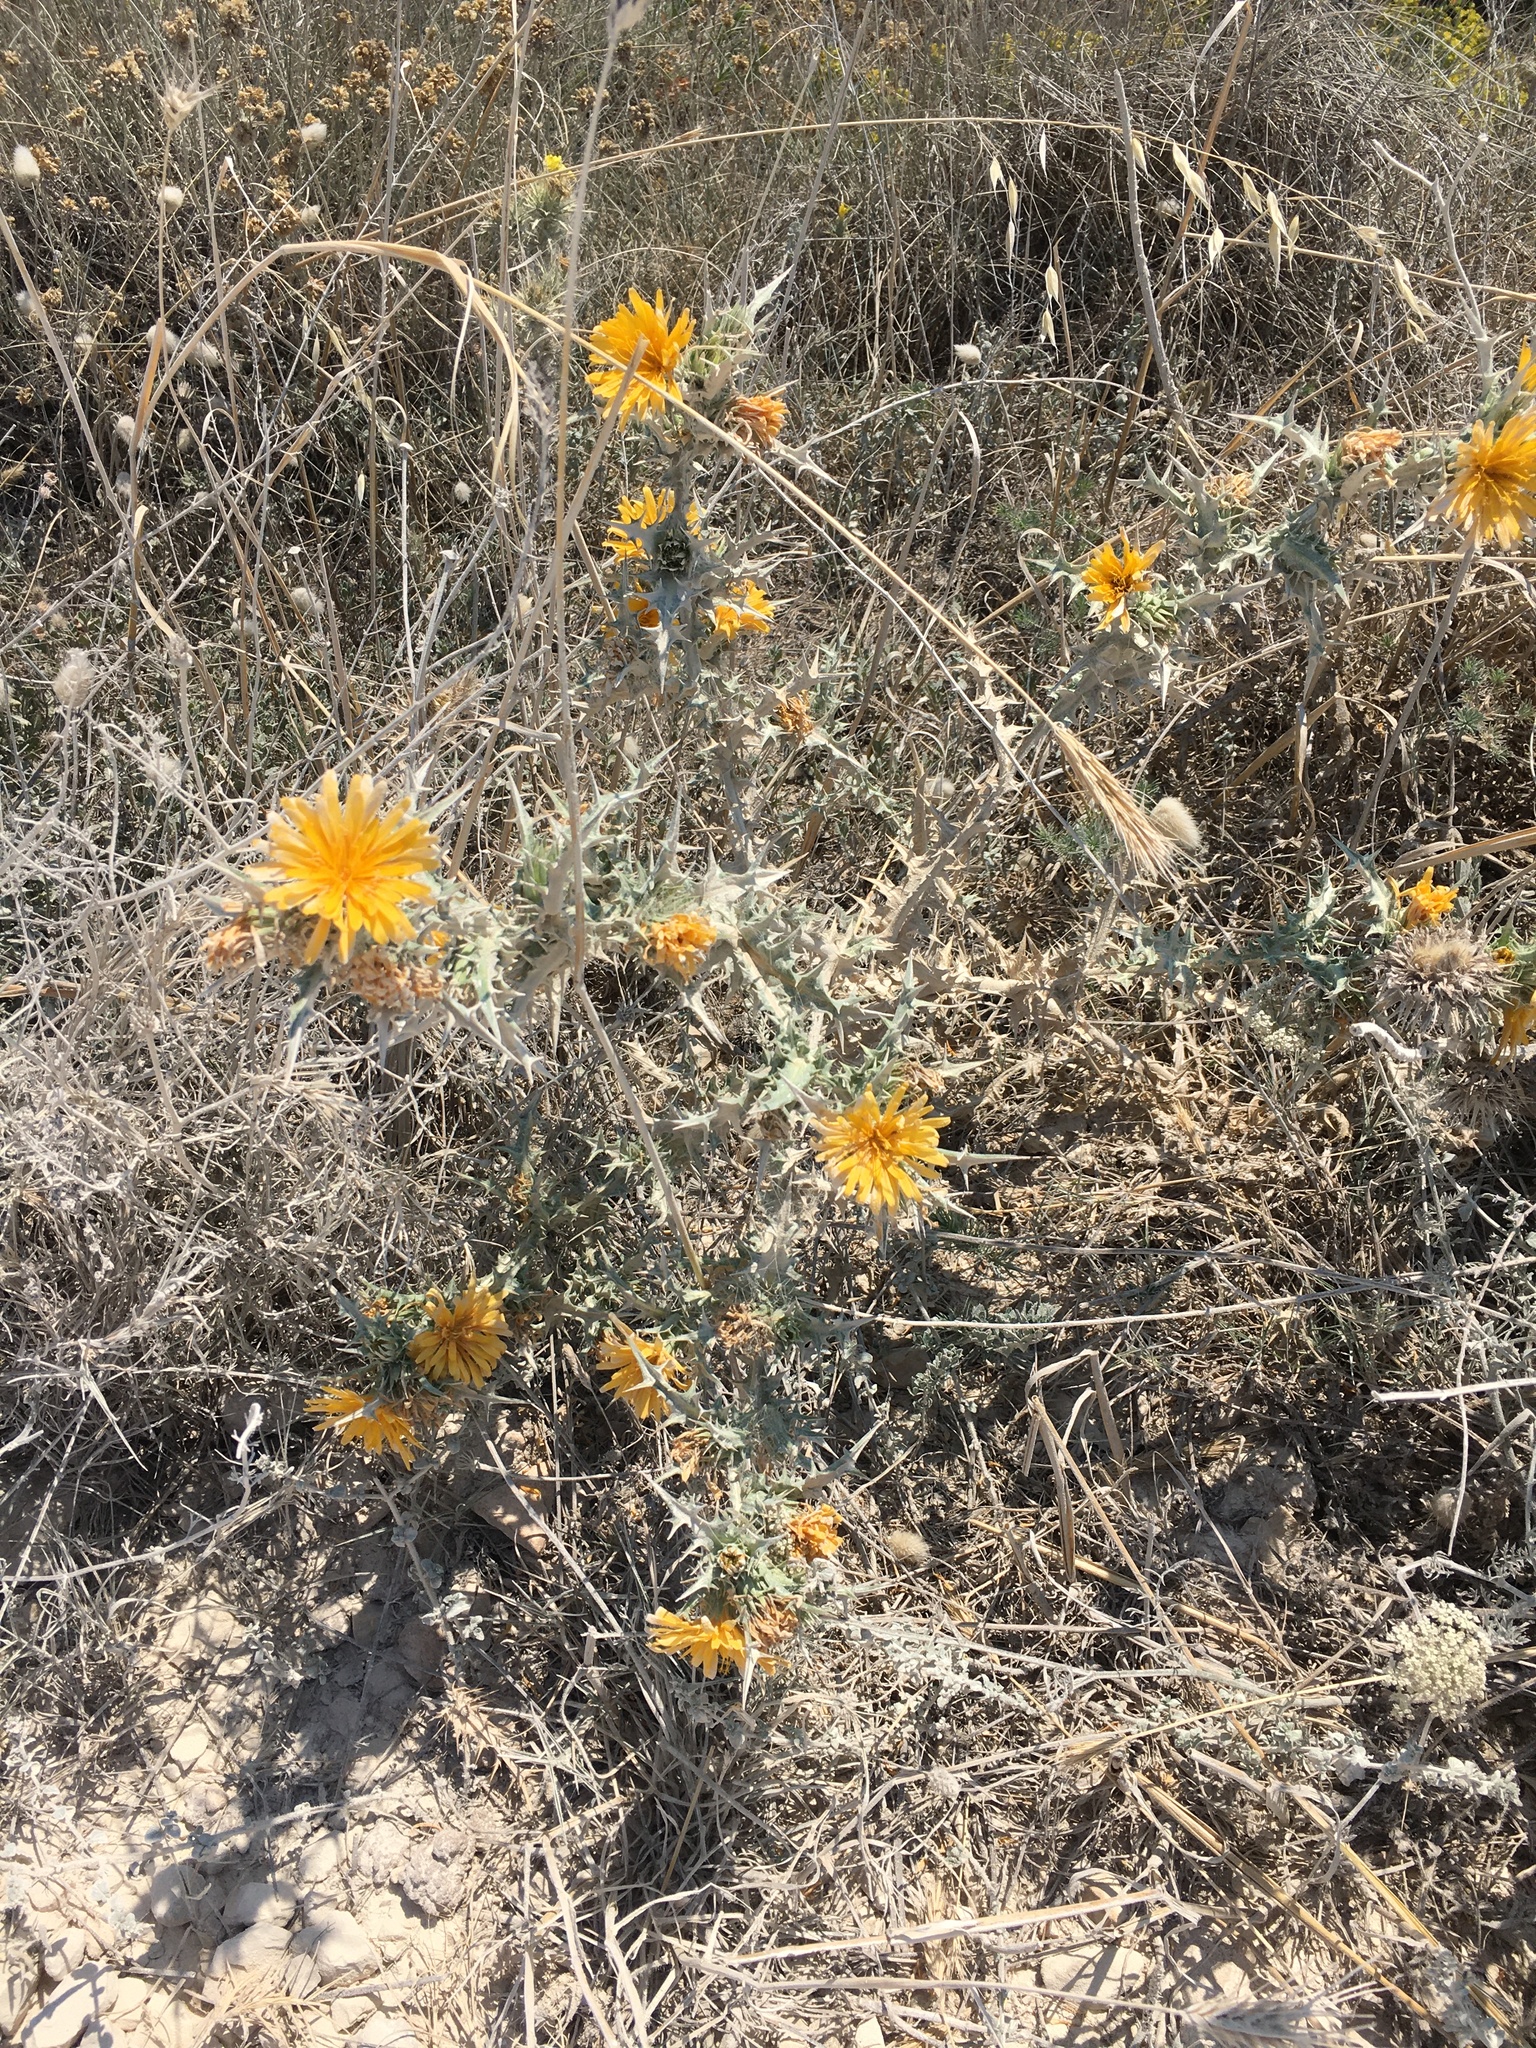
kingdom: Plantae
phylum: Tracheophyta
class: Magnoliopsida
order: Asterales
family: Asteraceae
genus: Scolymus
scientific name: Scolymus hispanicus
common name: Golden thistle
